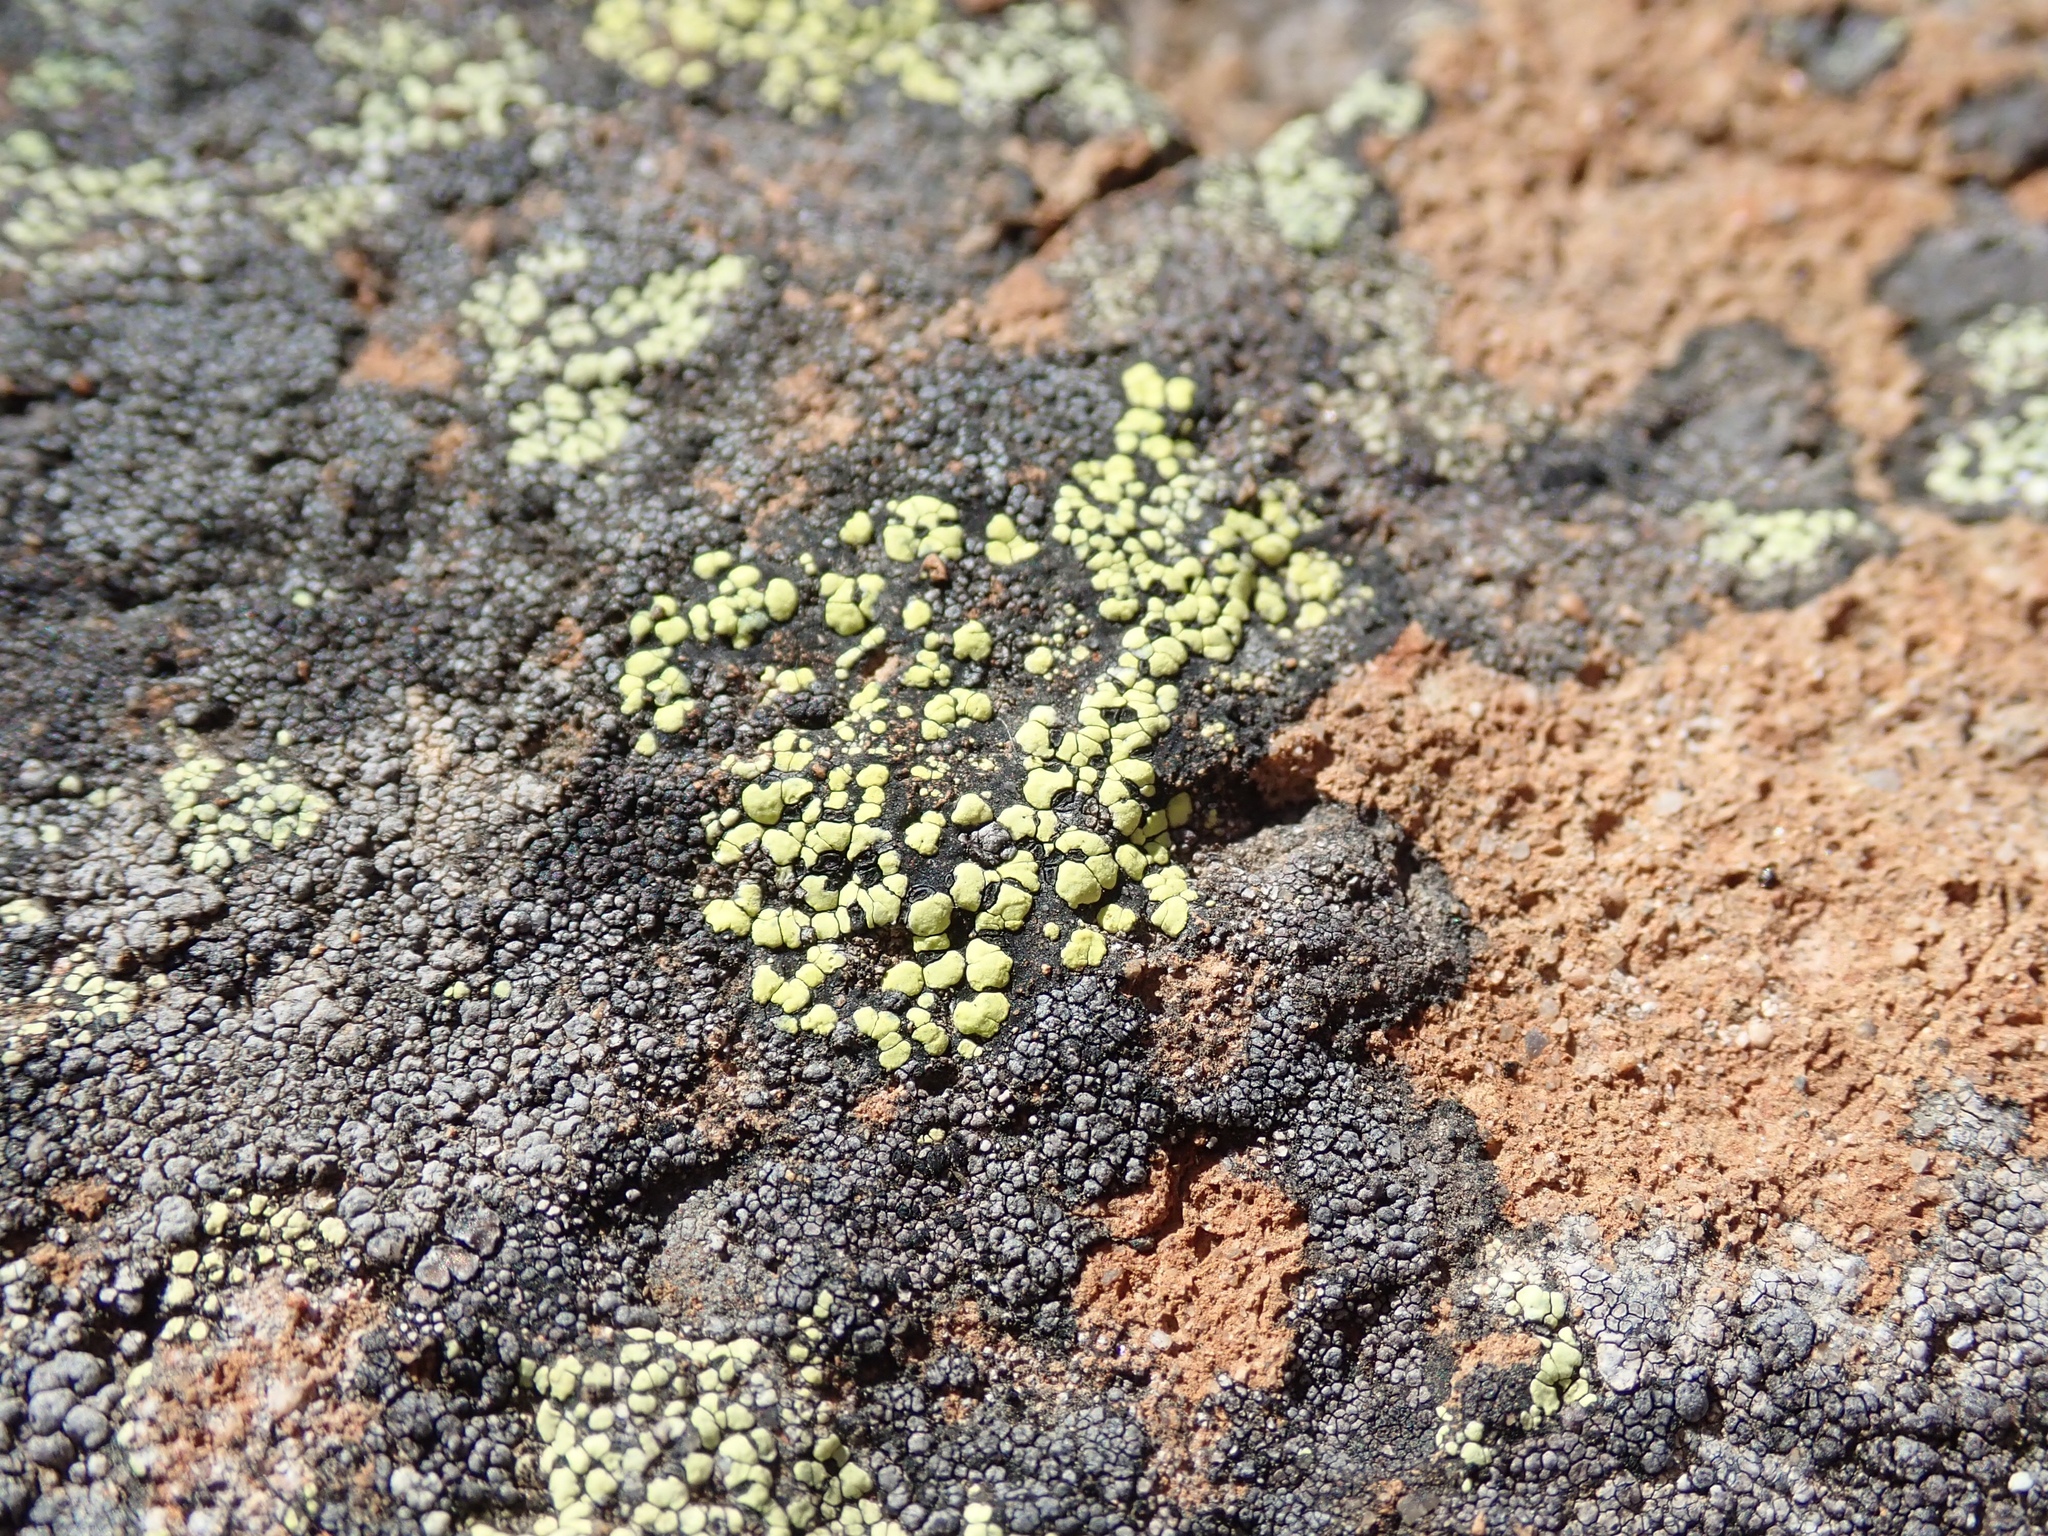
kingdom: Fungi
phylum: Ascomycota
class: Lecanoromycetes
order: Rhizocarpales
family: Rhizocarpaceae
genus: Rhizocarpon
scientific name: Rhizocarpon geographicum
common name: Yellow map lichen
